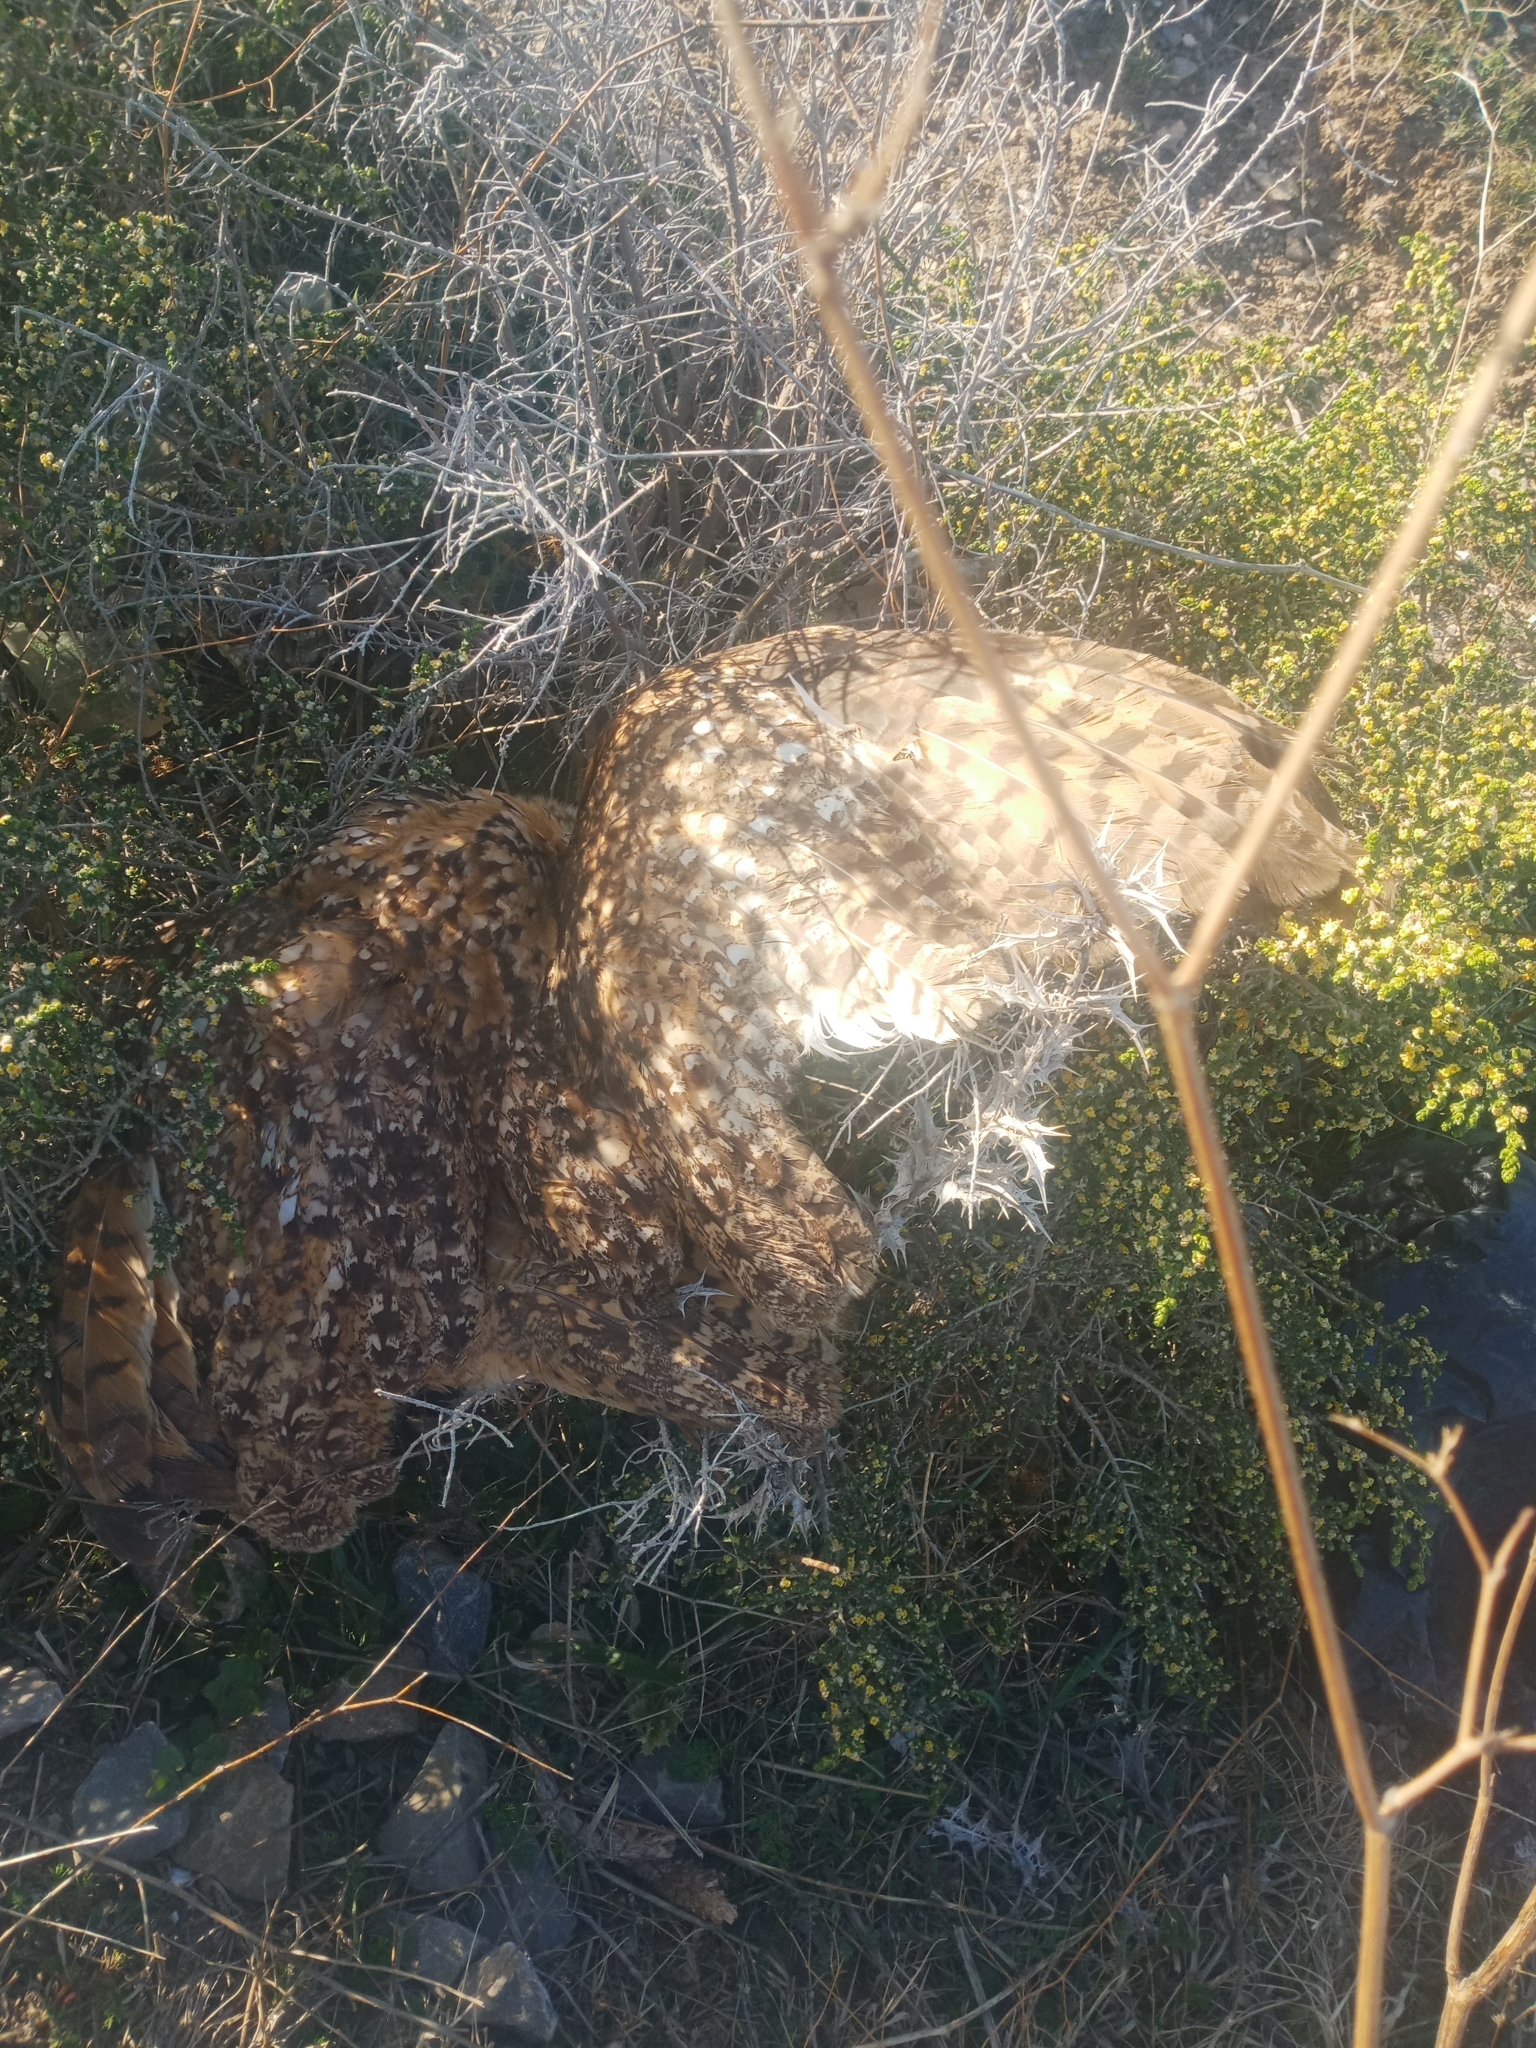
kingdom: Animalia
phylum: Chordata
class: Aves
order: Strigiformes
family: Strigidae
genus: Bubo
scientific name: Bubo ascalaphus
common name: Pharaoh eagle-owl
